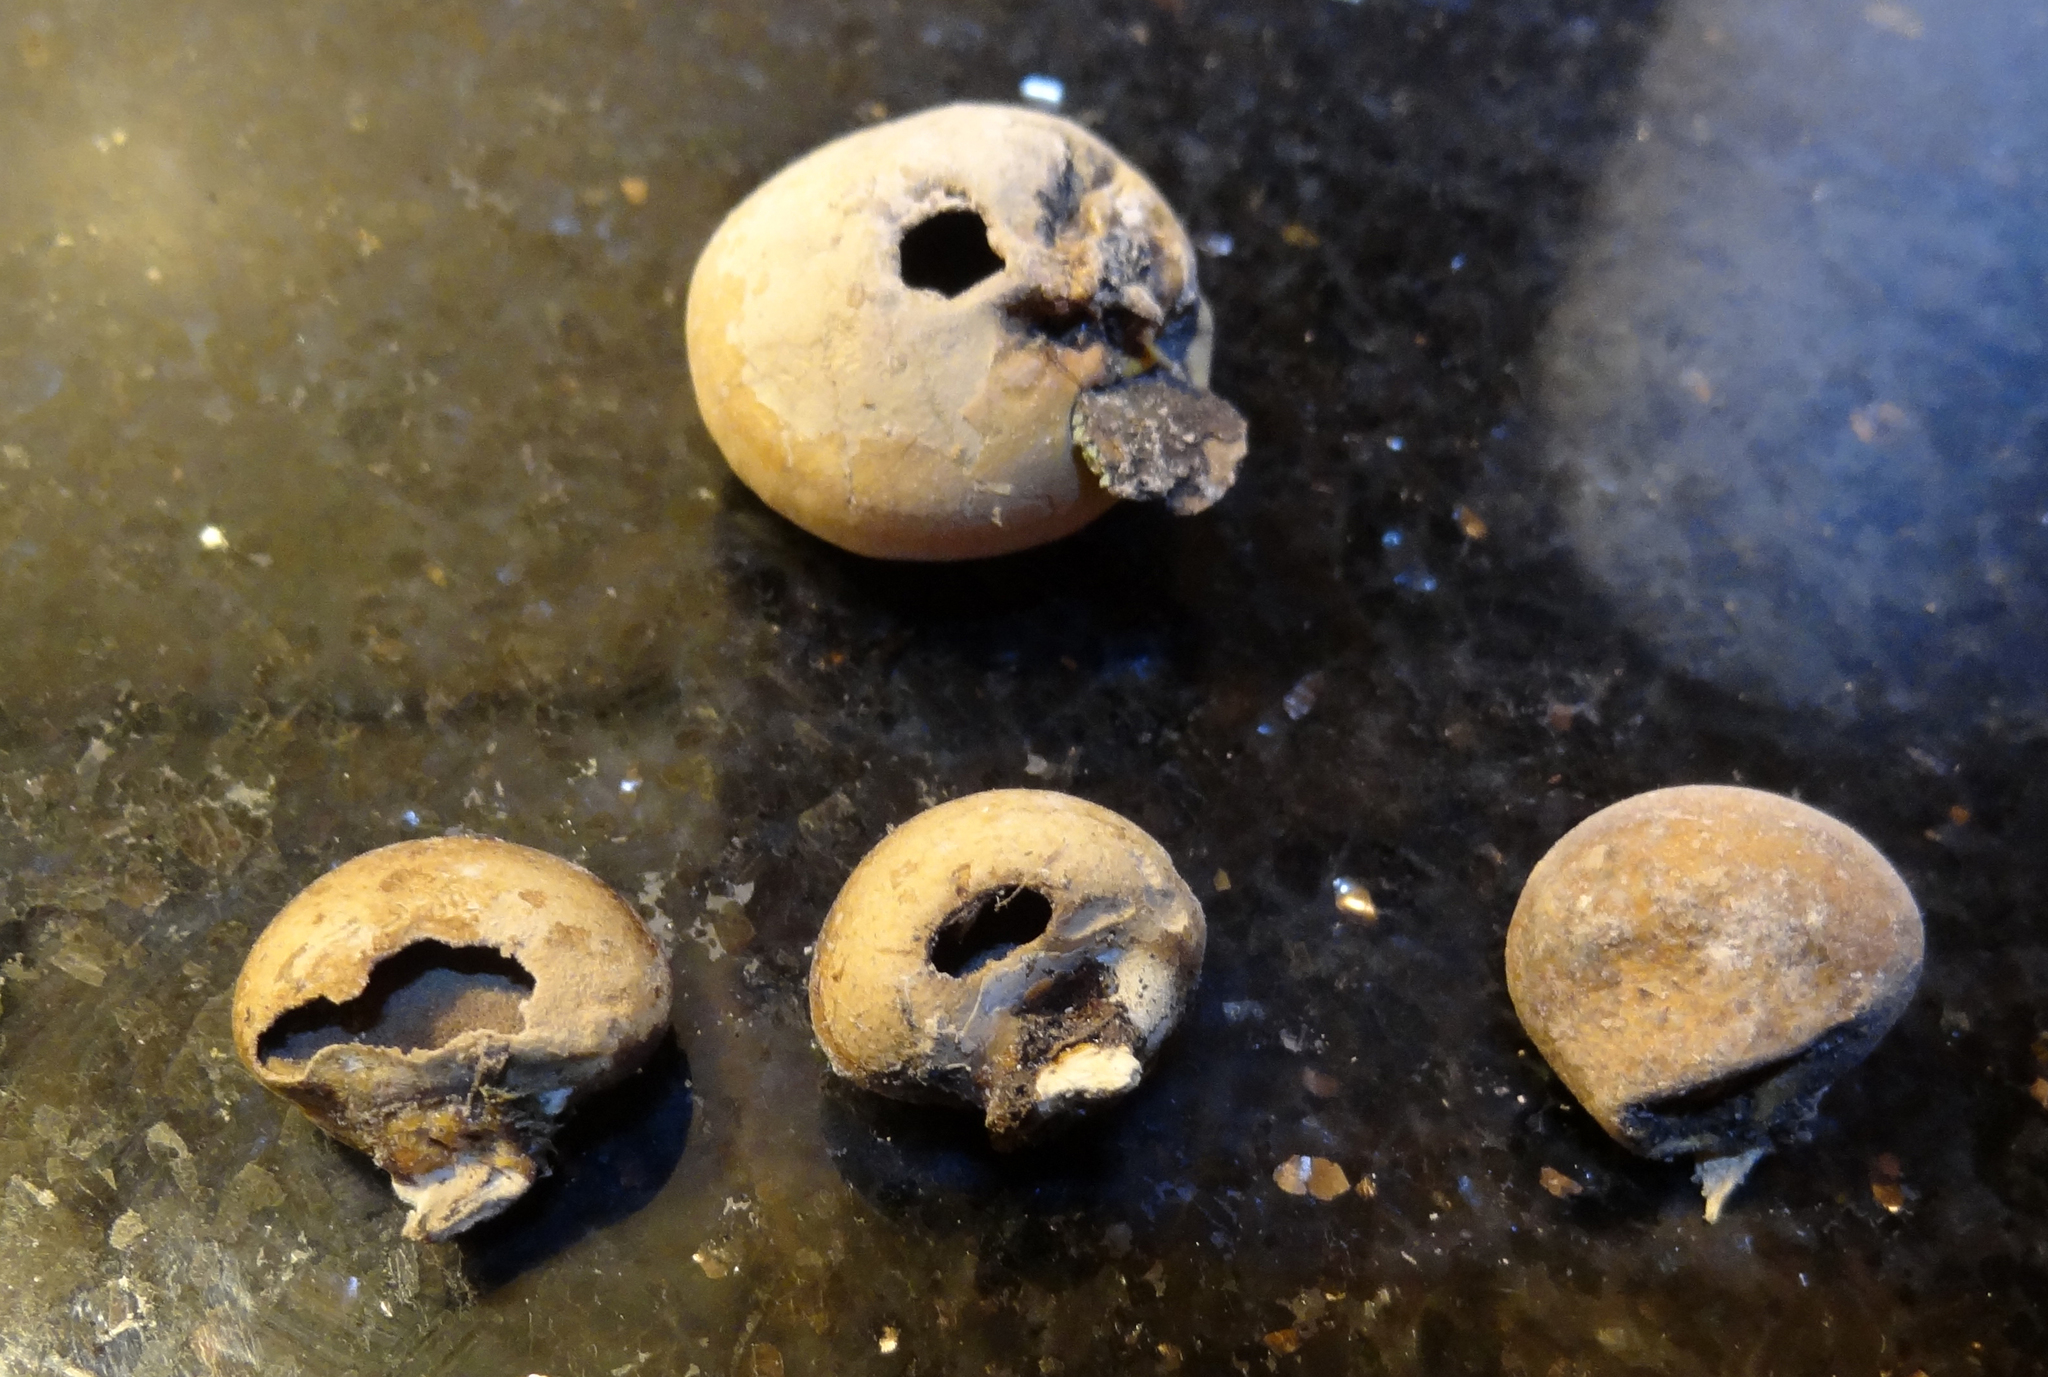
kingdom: Fungi
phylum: Basidiomycota
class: Agaricomycetes
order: Polyporales
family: Polyporaceae
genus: Cryptoporus
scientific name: Cryptoporus volvatus
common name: Veiled polypore
